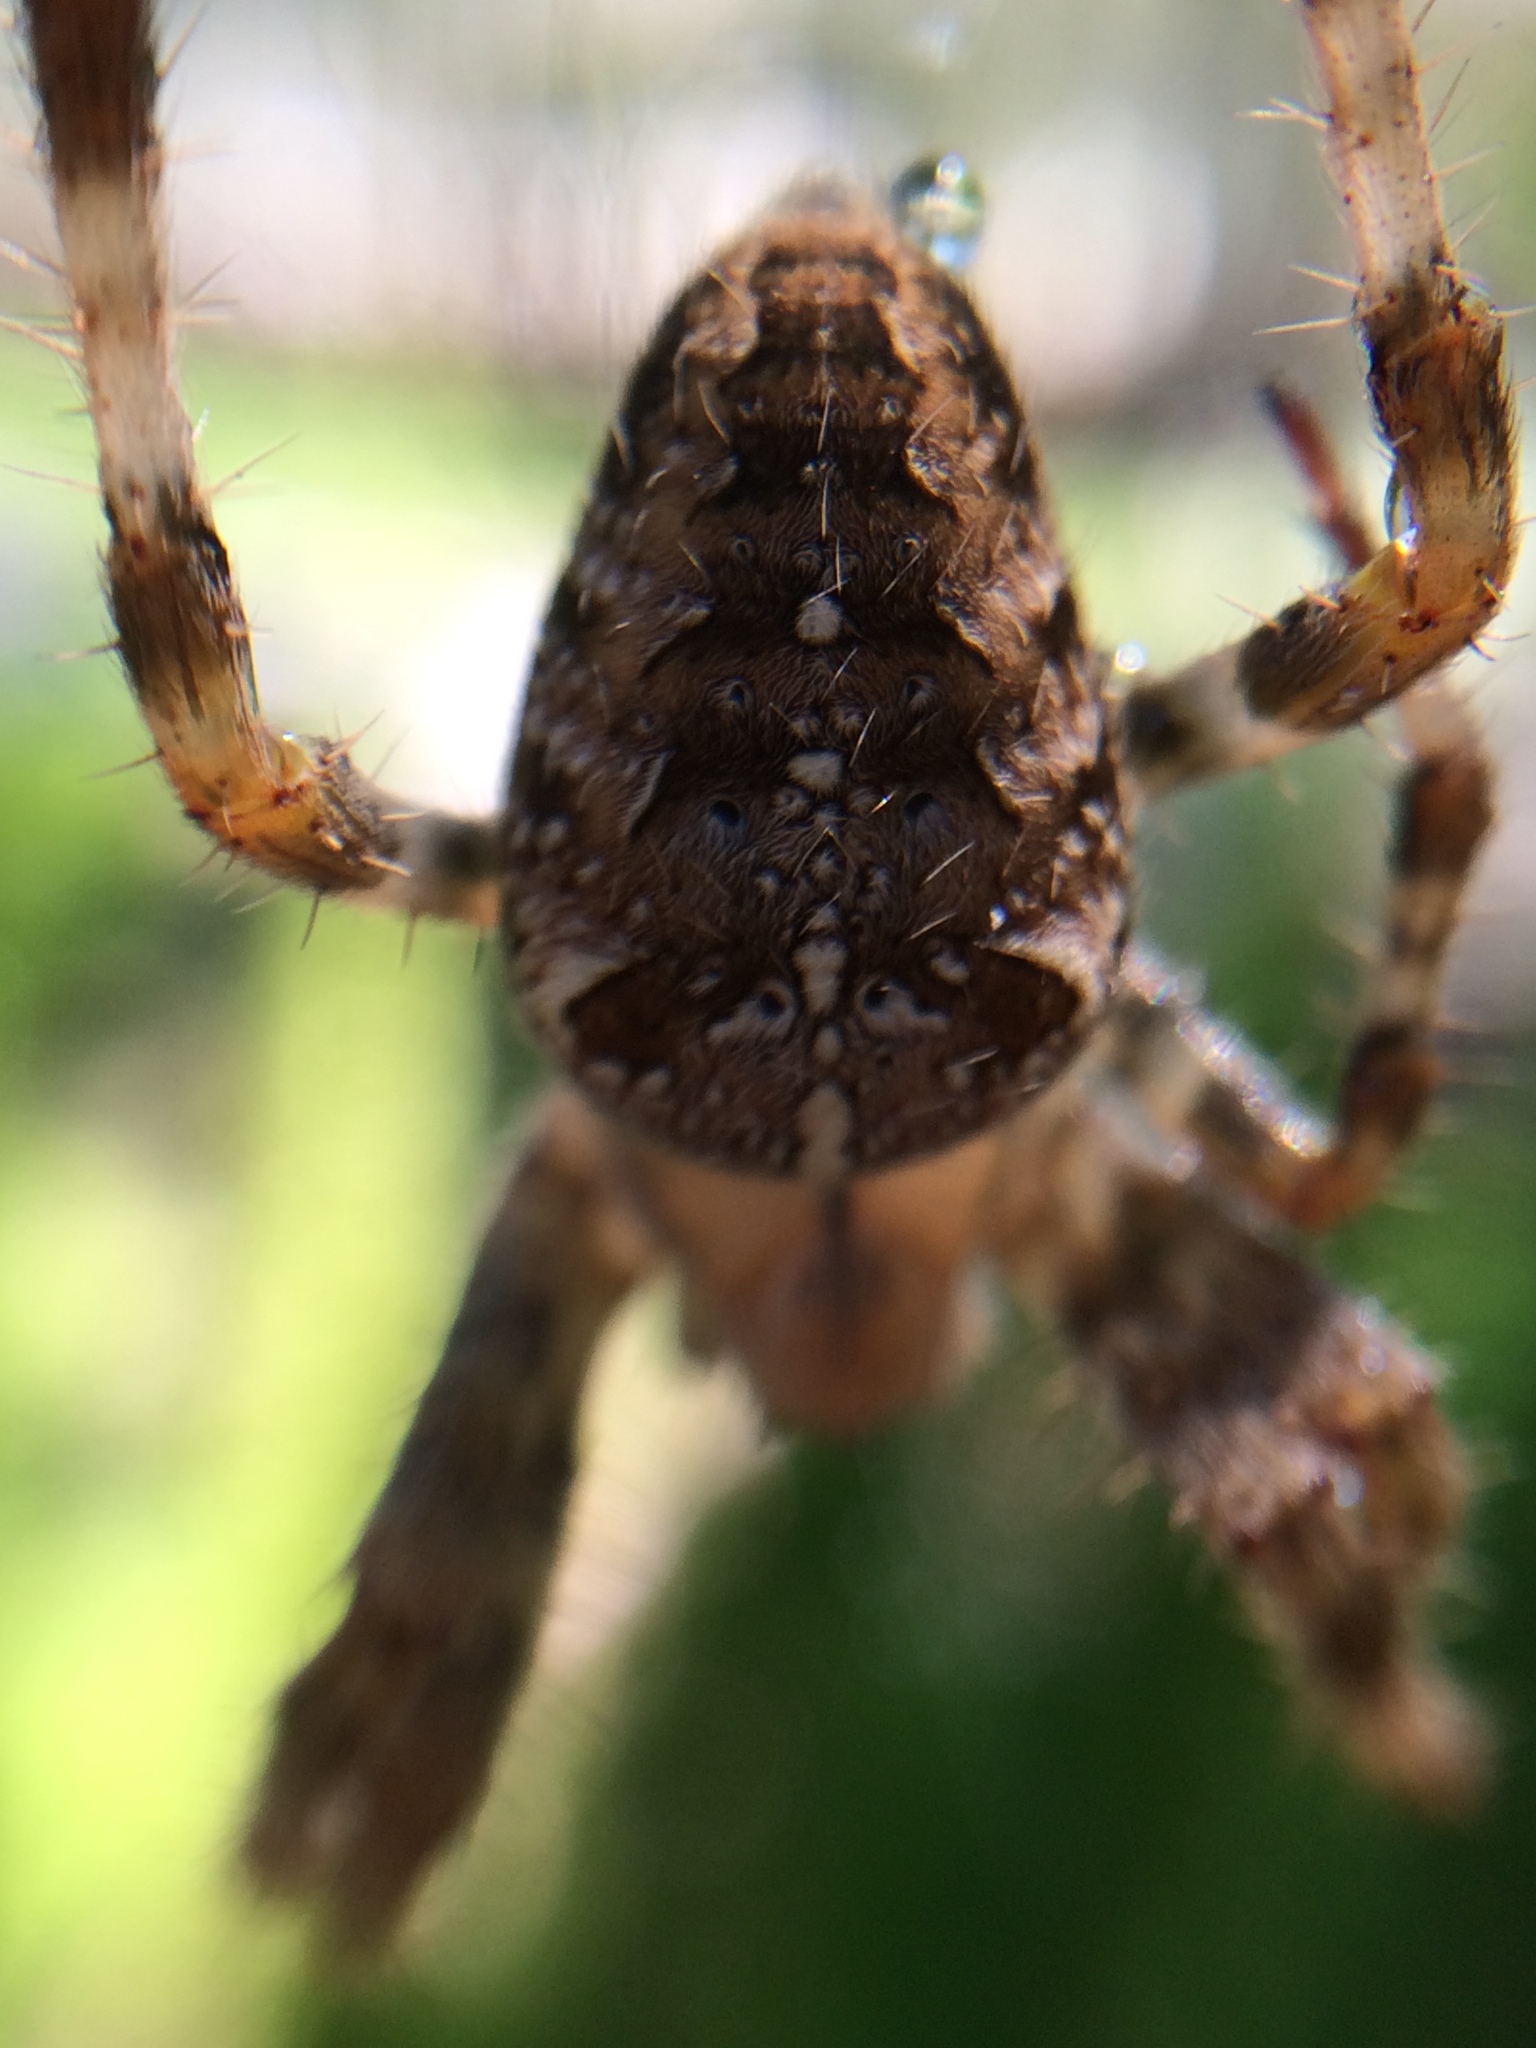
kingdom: Animalia
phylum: Arthropoda
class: Arachnida
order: Araneae
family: Araneidae
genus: Araneus
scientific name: Araneus diadematus
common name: Cross orbweaver
